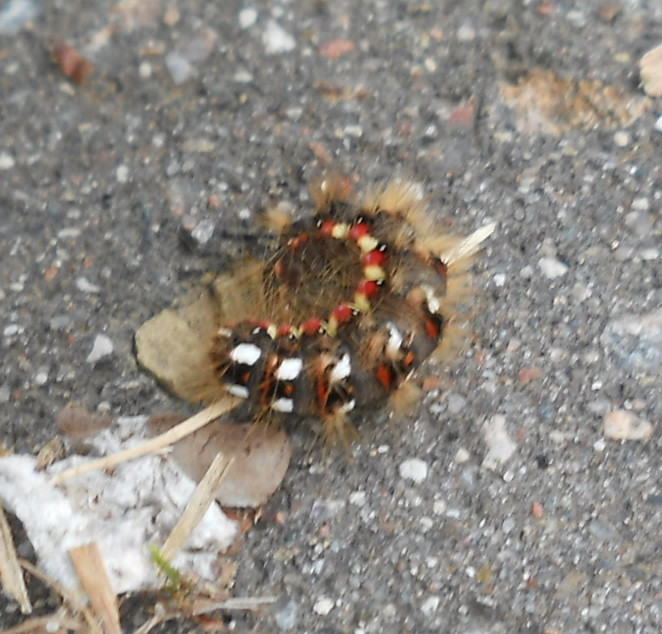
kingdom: Animalia
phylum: Arthropoda
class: Insecta
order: Lepidoptera
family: Noctuidae
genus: Acronicta
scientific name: Acronicta rumicis
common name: Knot grass
